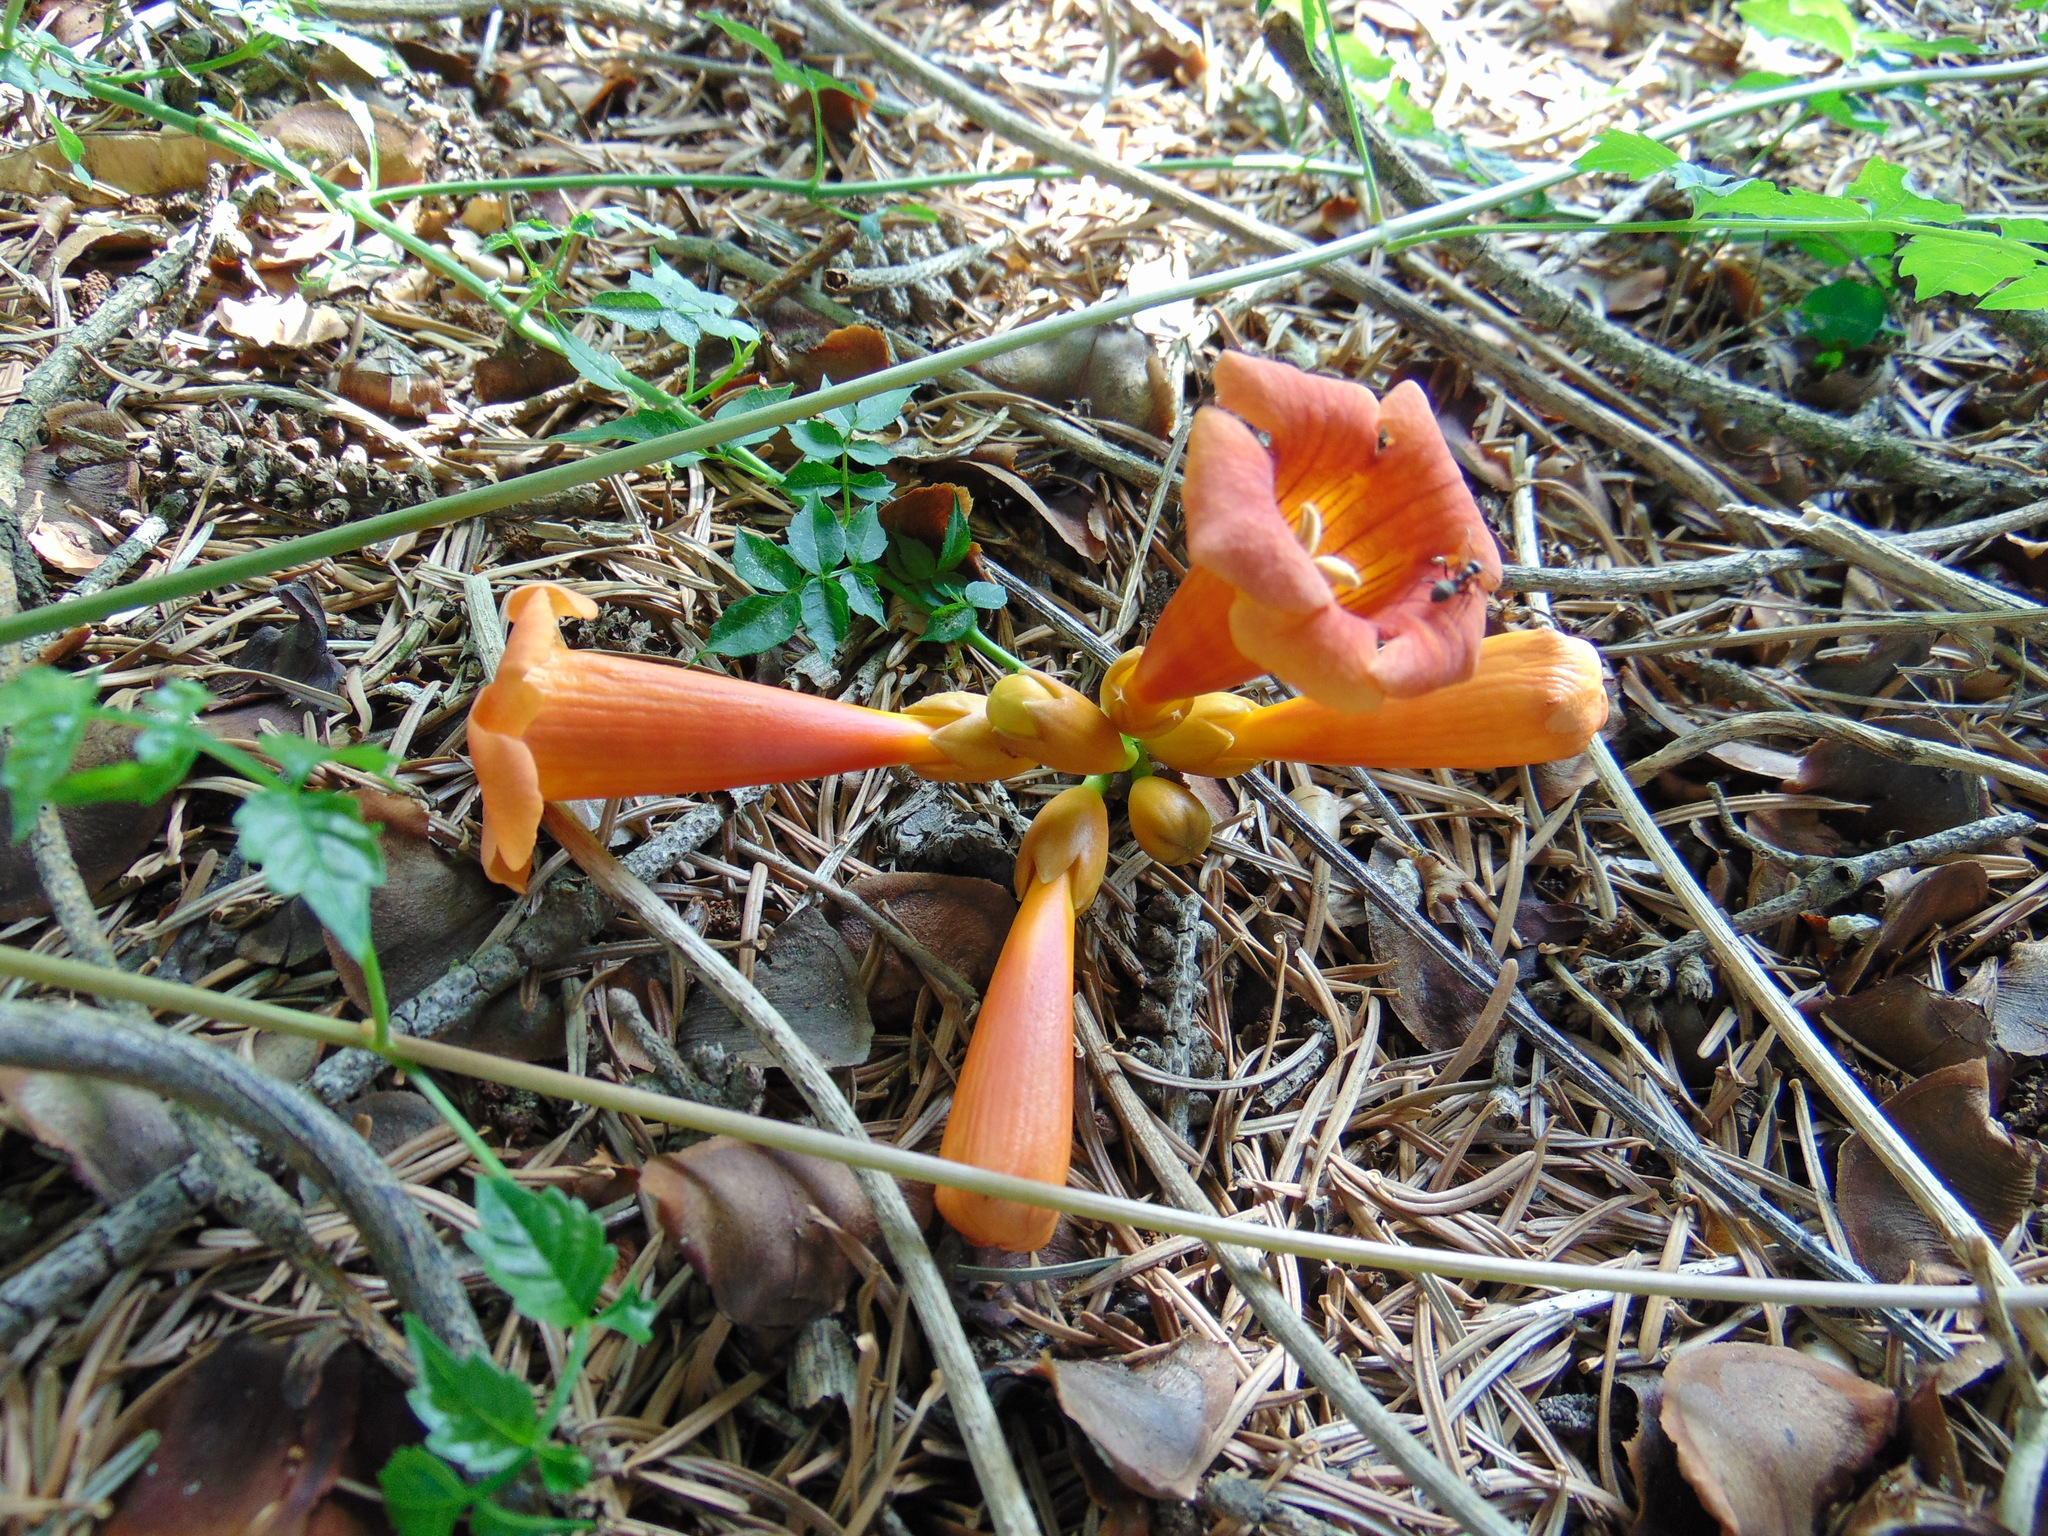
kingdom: Plantae
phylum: Tracheophyta
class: Magnoliopsida
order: Lamiales
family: Bignoniaceae
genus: Campsis
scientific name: Campsis radicans
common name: Trumpet-creeper
